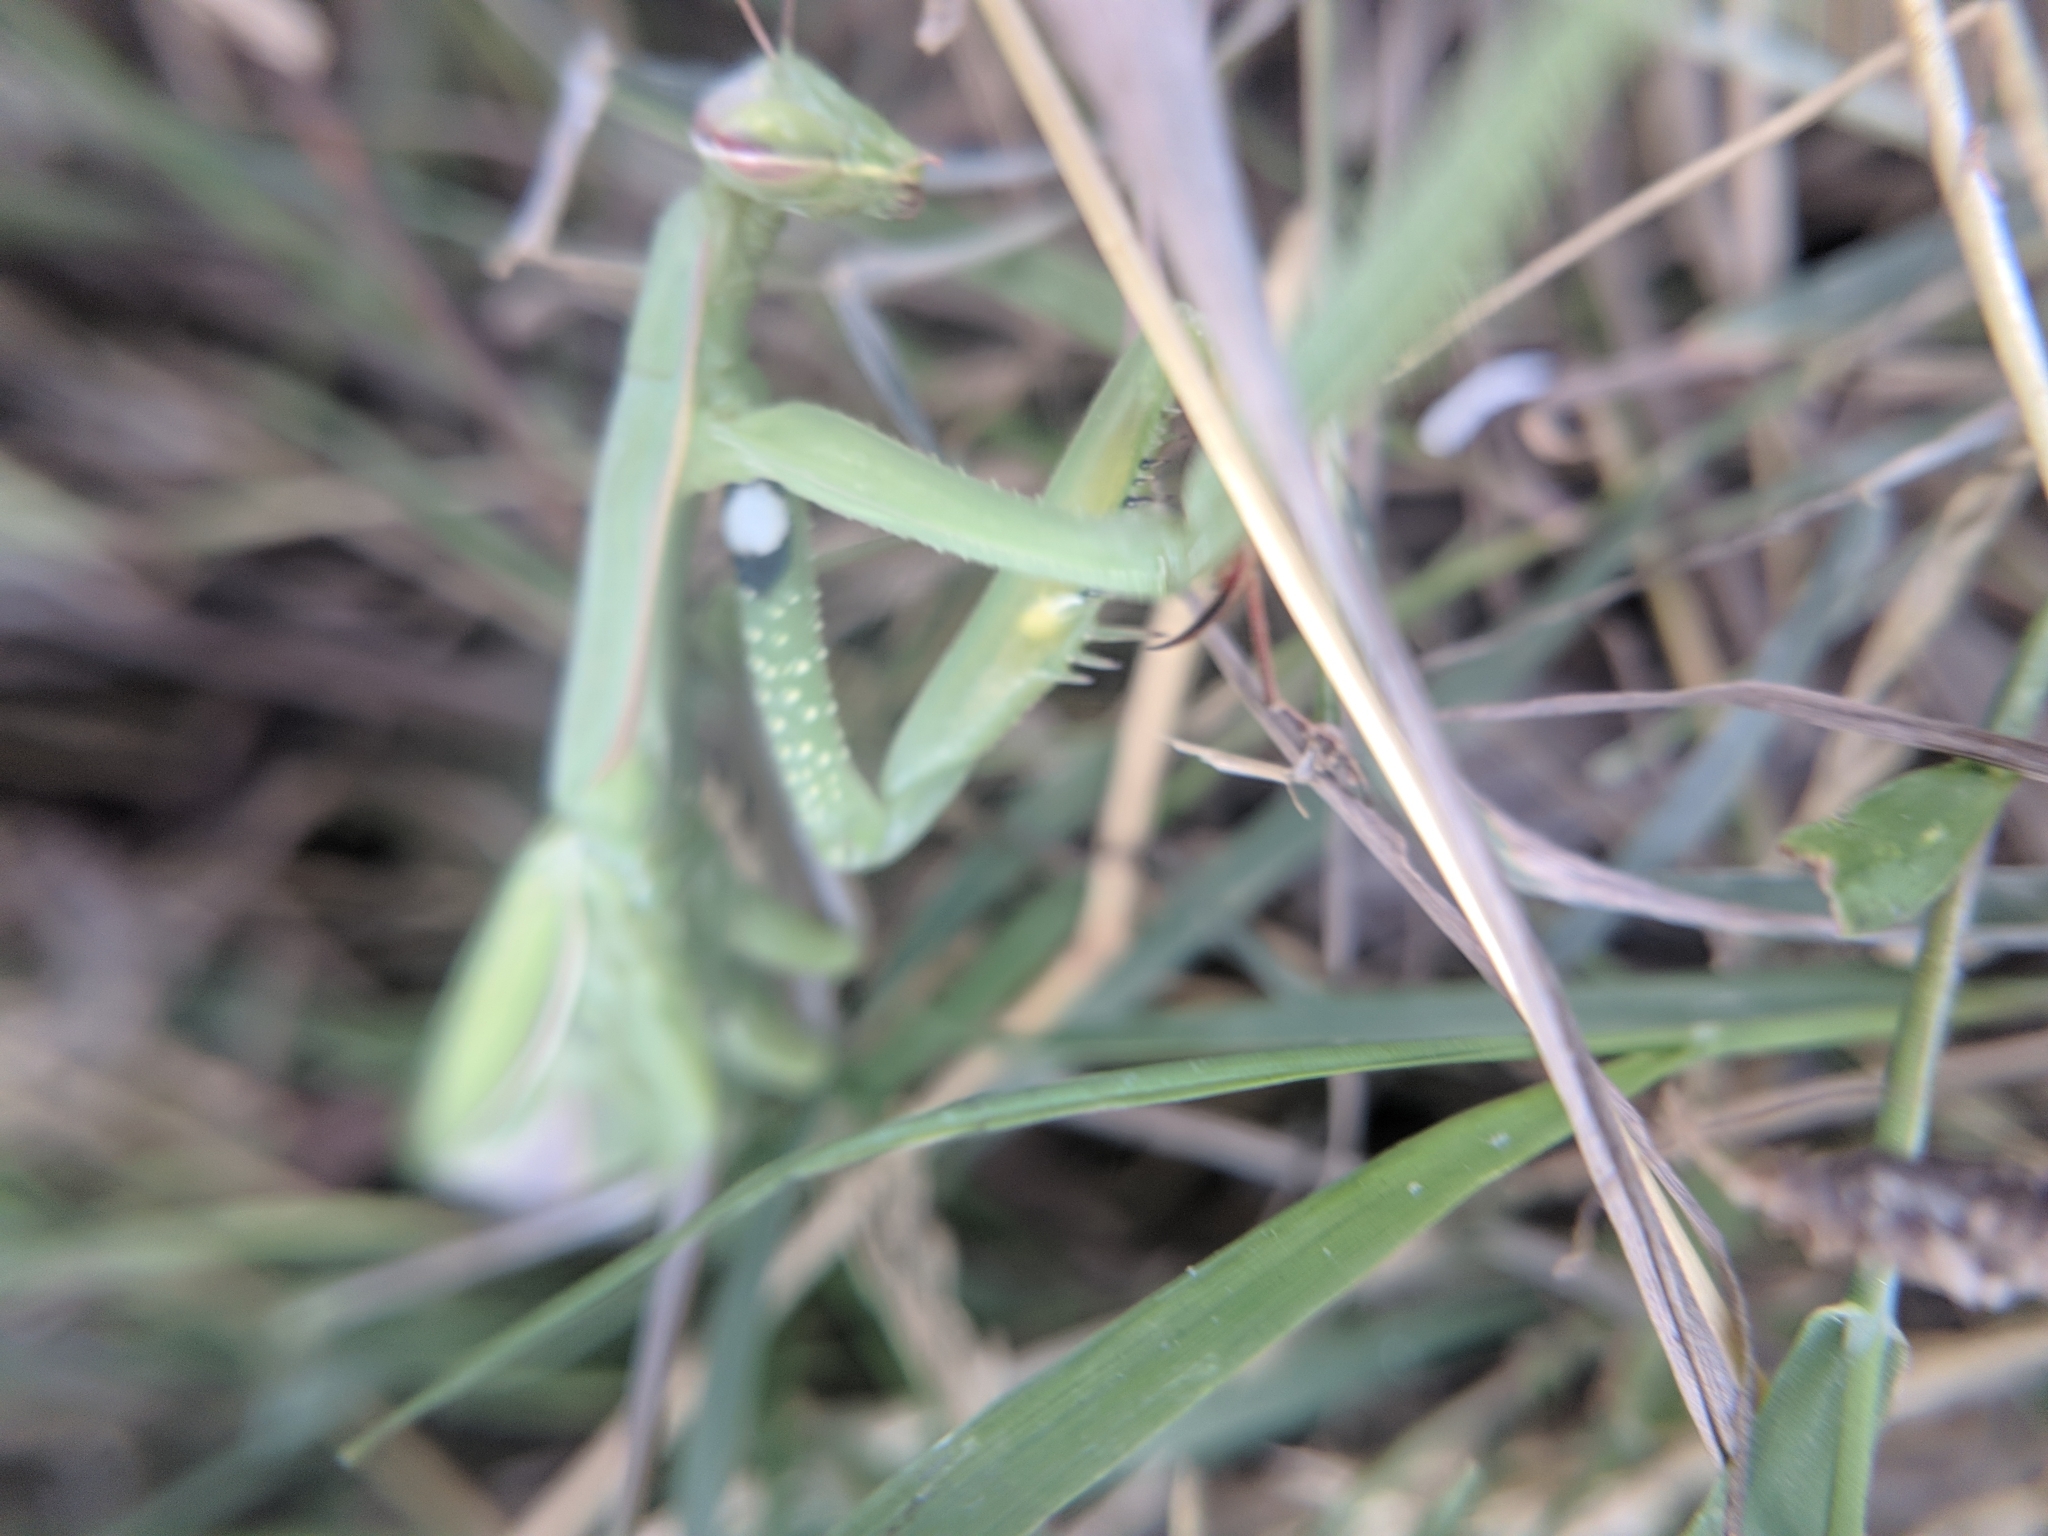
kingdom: Animalia
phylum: Arthropoda
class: Insecta
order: Mantodea
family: Mantidae
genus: Mantis
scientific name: Mantis religiosa
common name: Praying mantis
